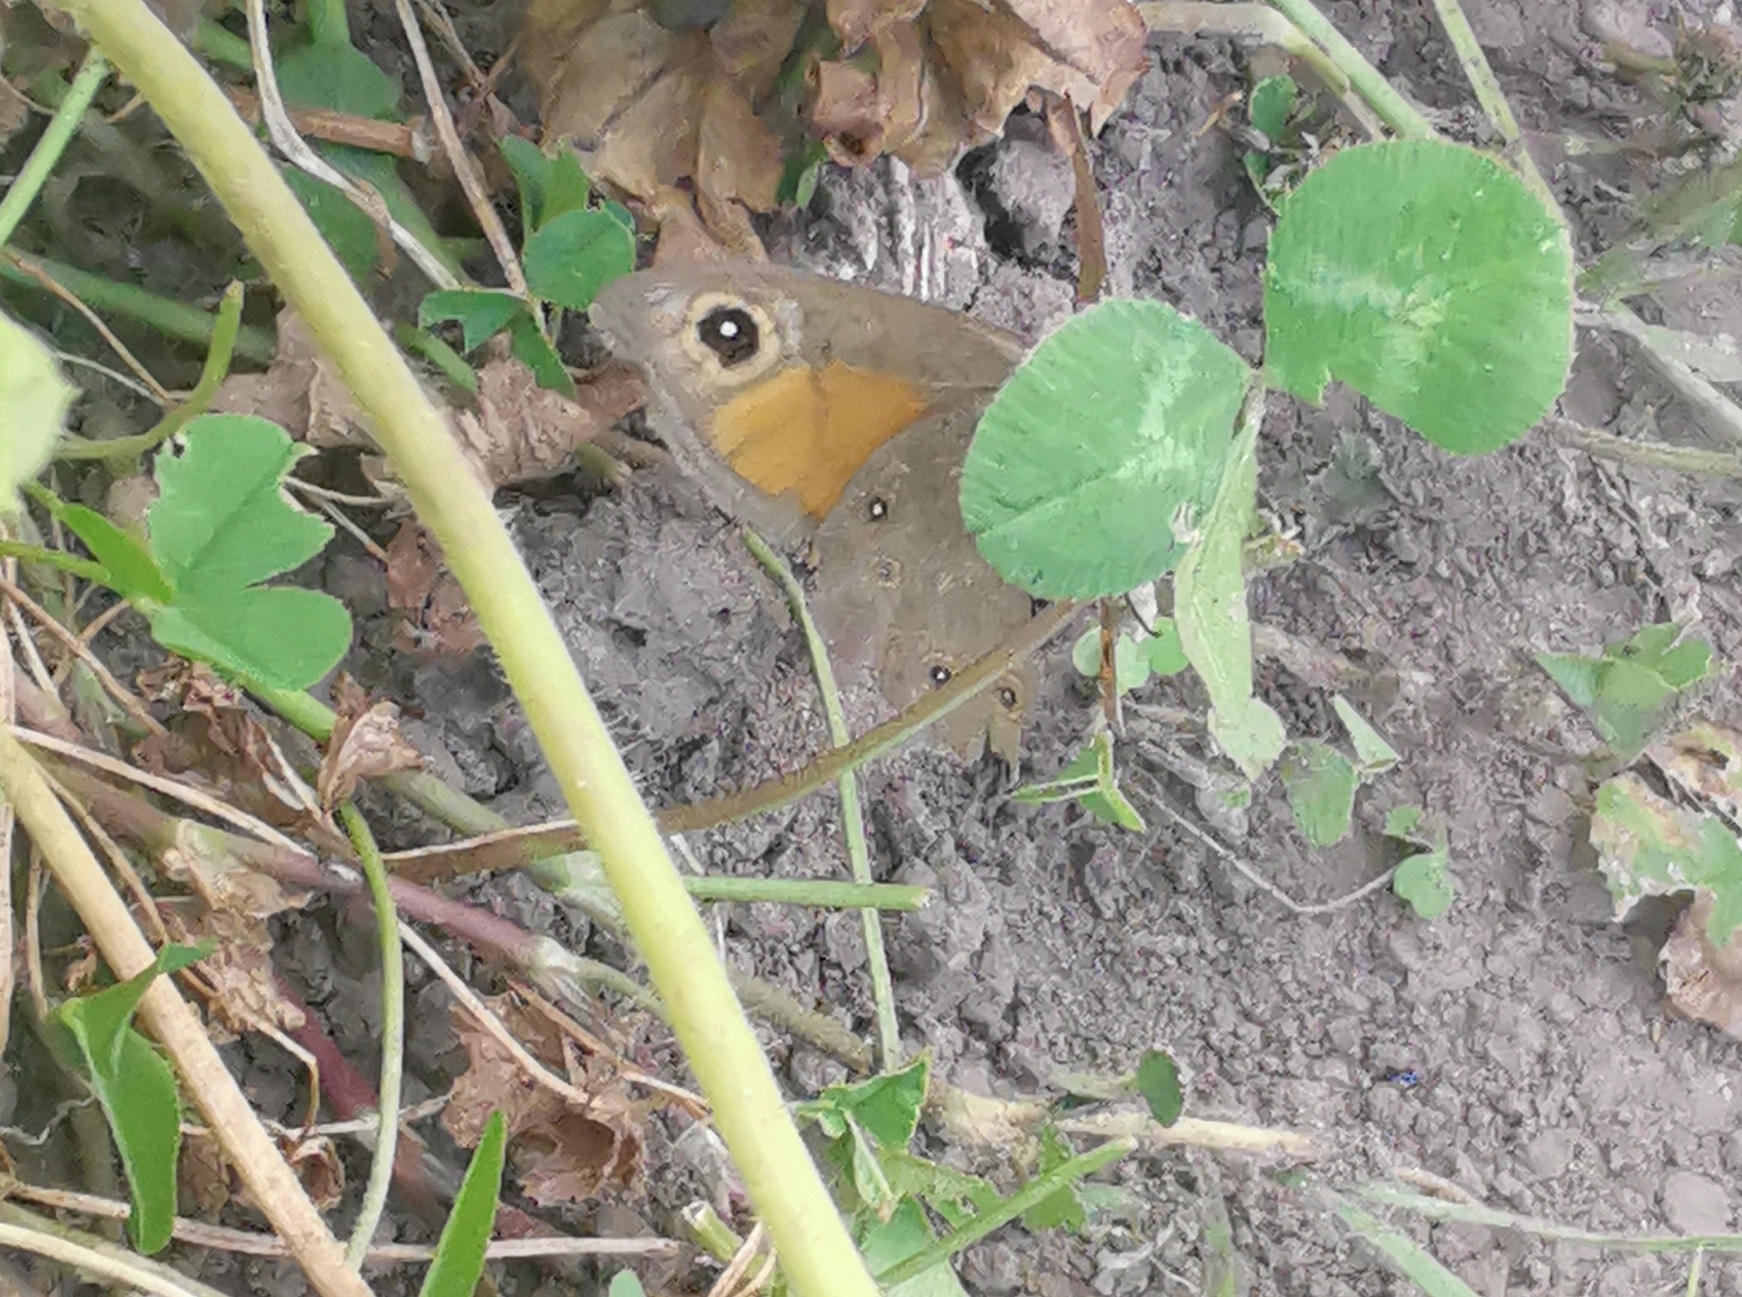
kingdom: Animalia
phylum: Arthropoda
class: Insecta
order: Lepidoptera
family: Nymphalidae
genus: Pararge
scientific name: Pararge Lasiommata maera
